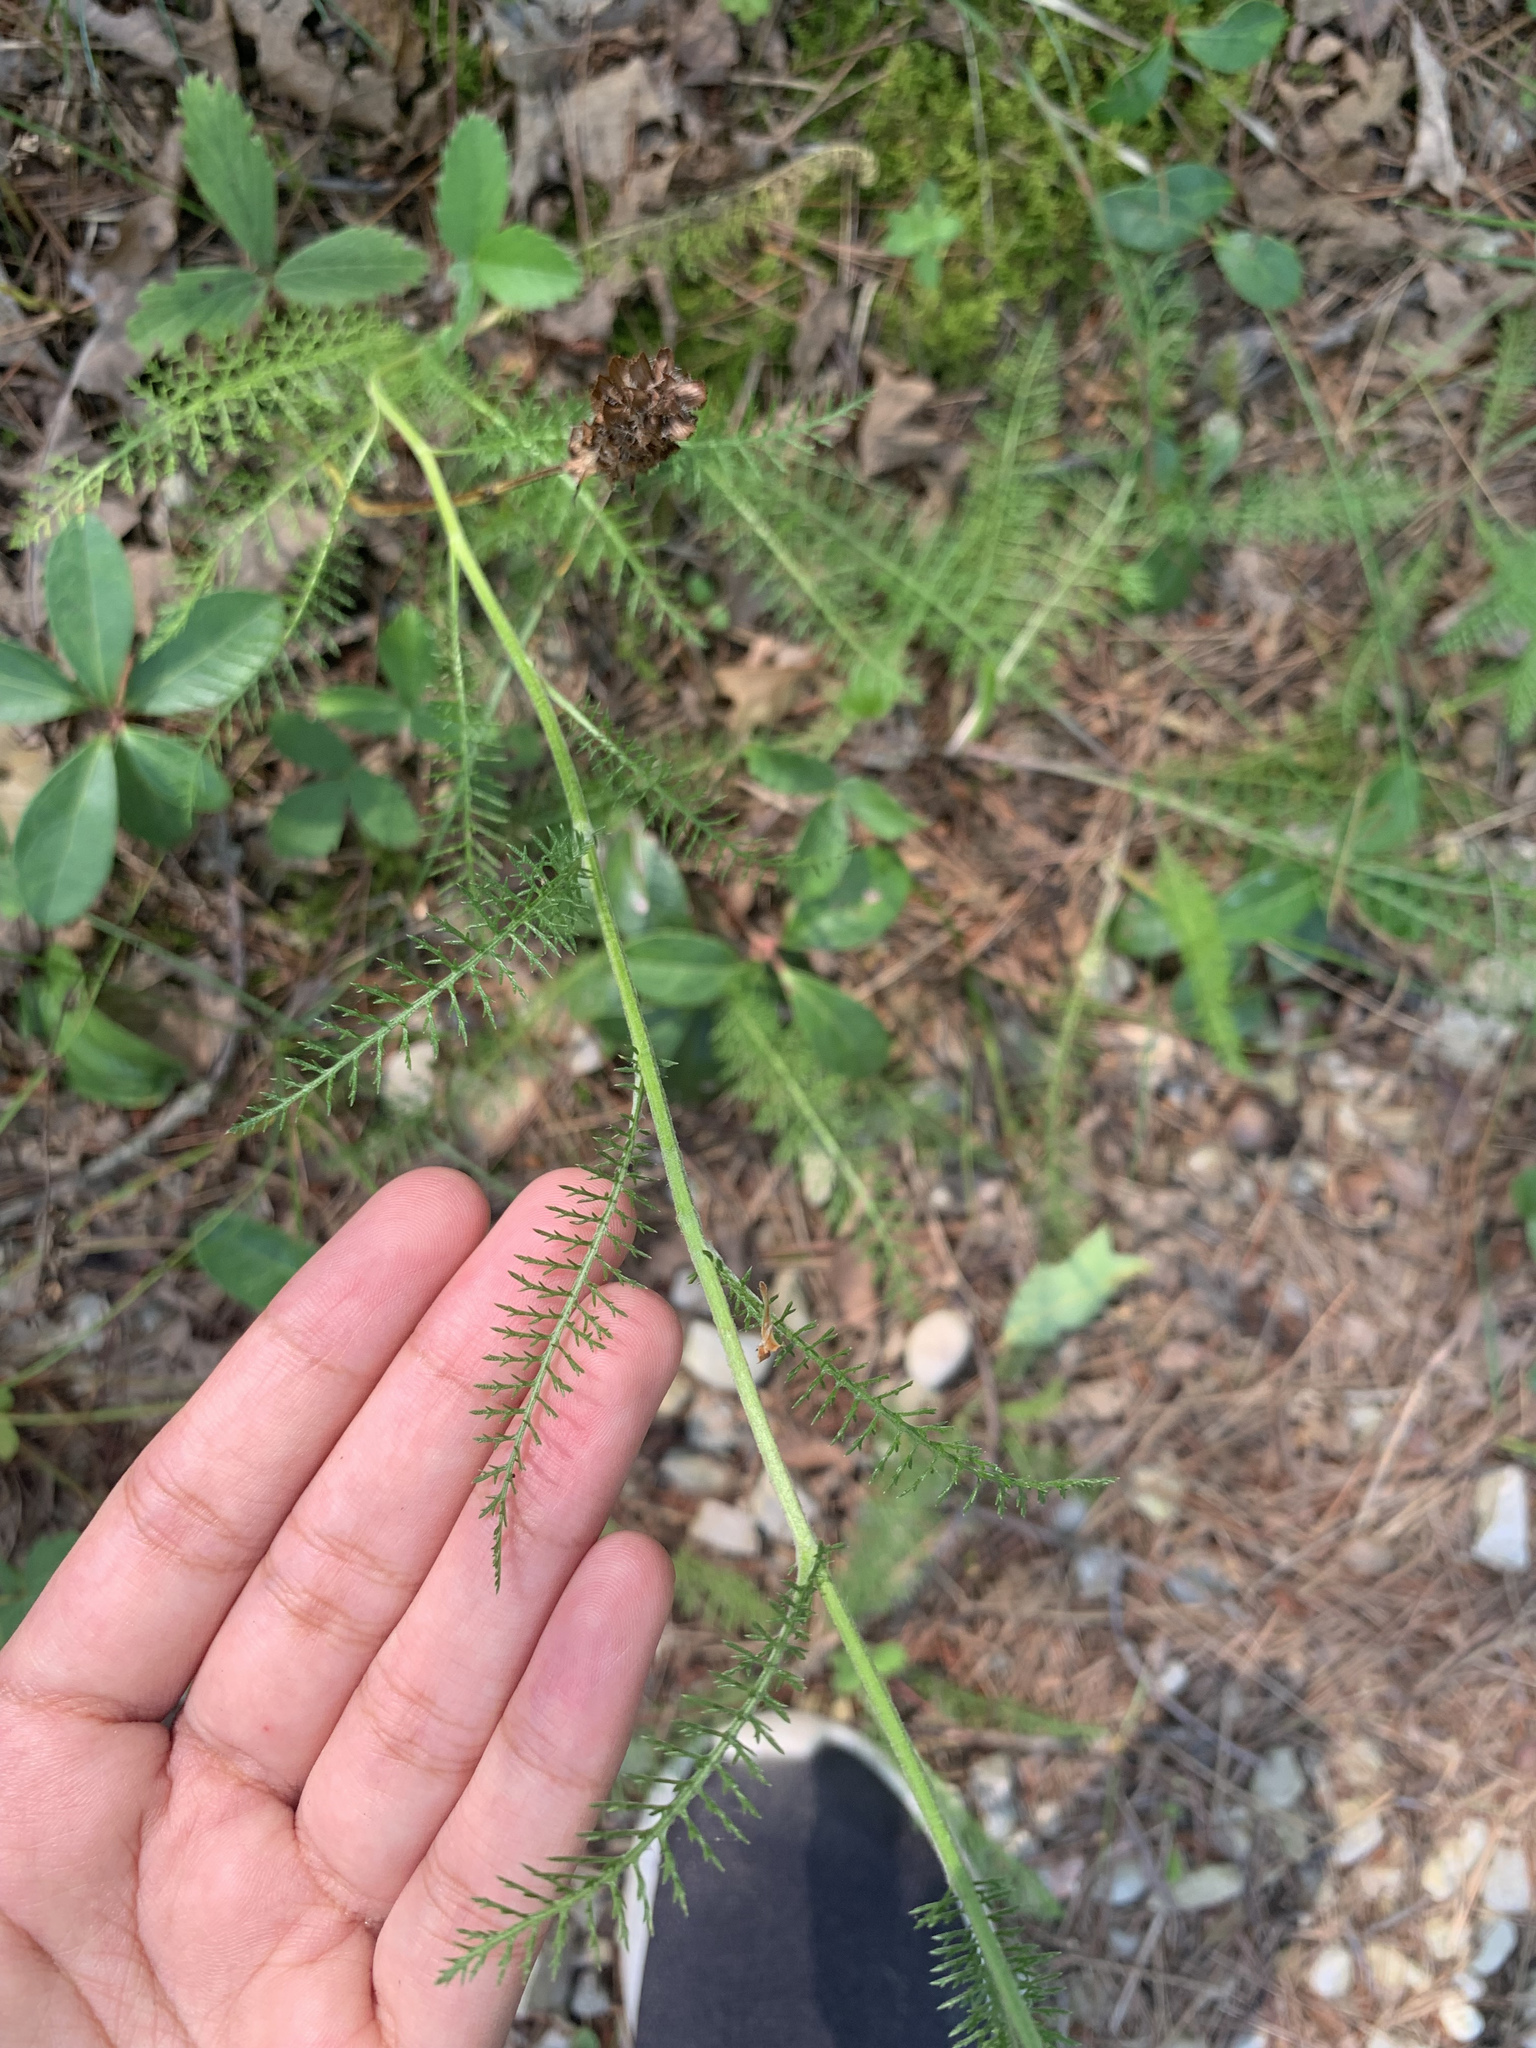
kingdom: Plantae
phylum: Tracheophyta
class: Magnoliopsida
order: Asterales
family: Asteraceae
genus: Achillea
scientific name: Achillea millefolium
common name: Yarrow
